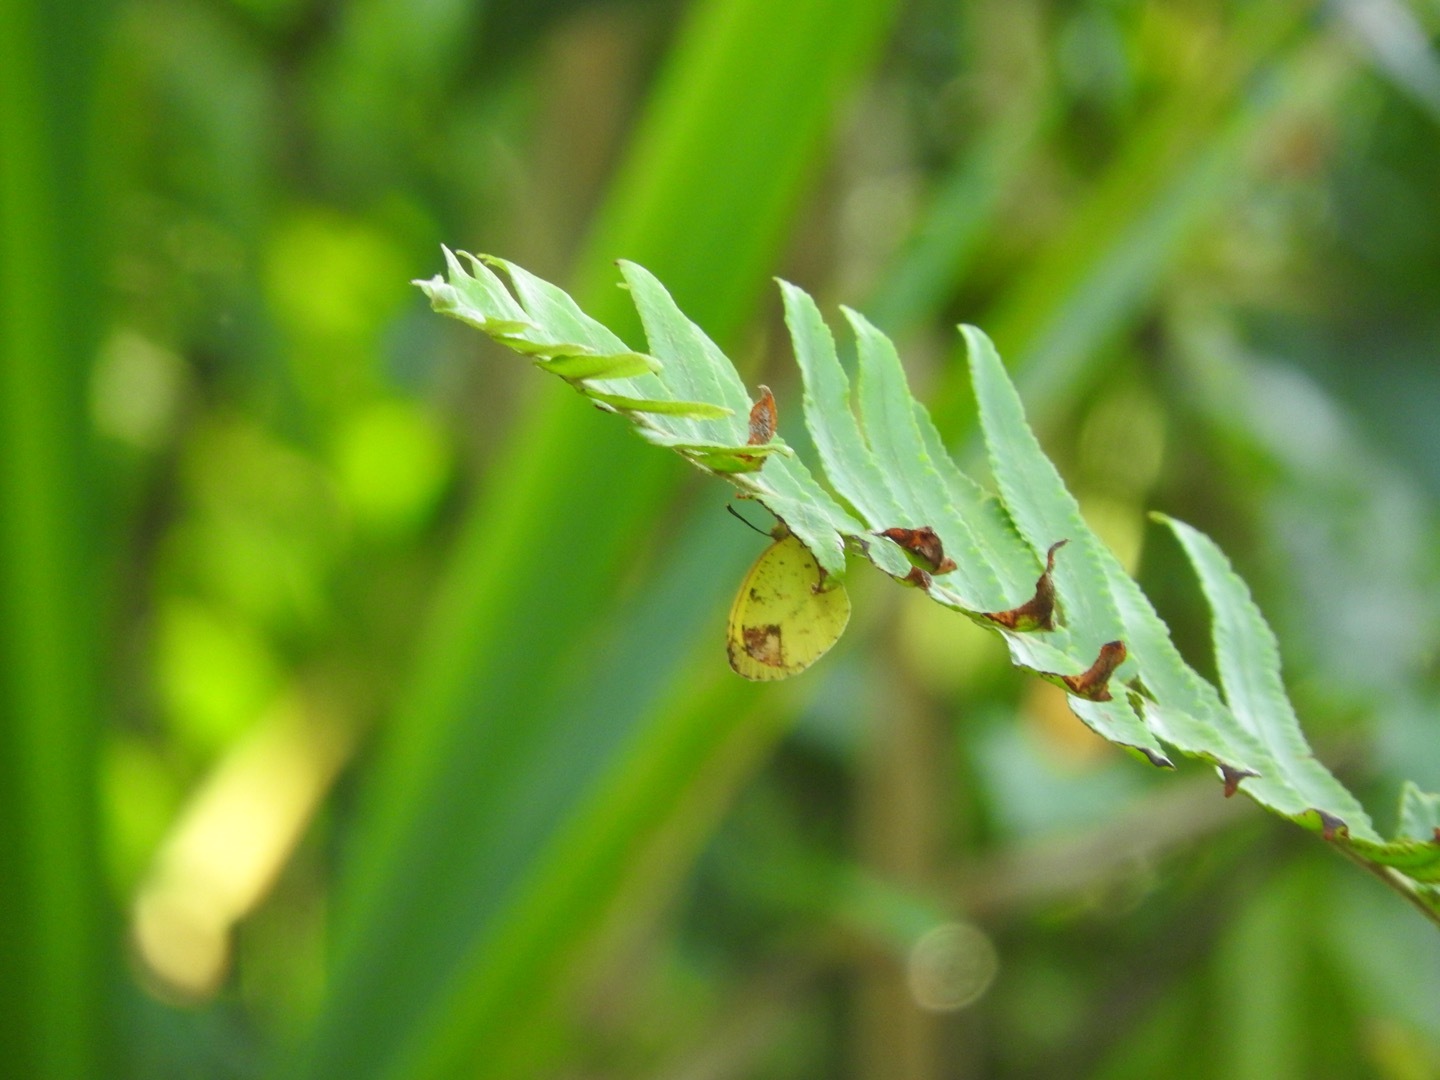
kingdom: Animalia
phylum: Arthropoda
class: Insecta
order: Lepidoptera
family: Pieridae
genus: Pyrisitia
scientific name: Pyrisitia portoricensis
